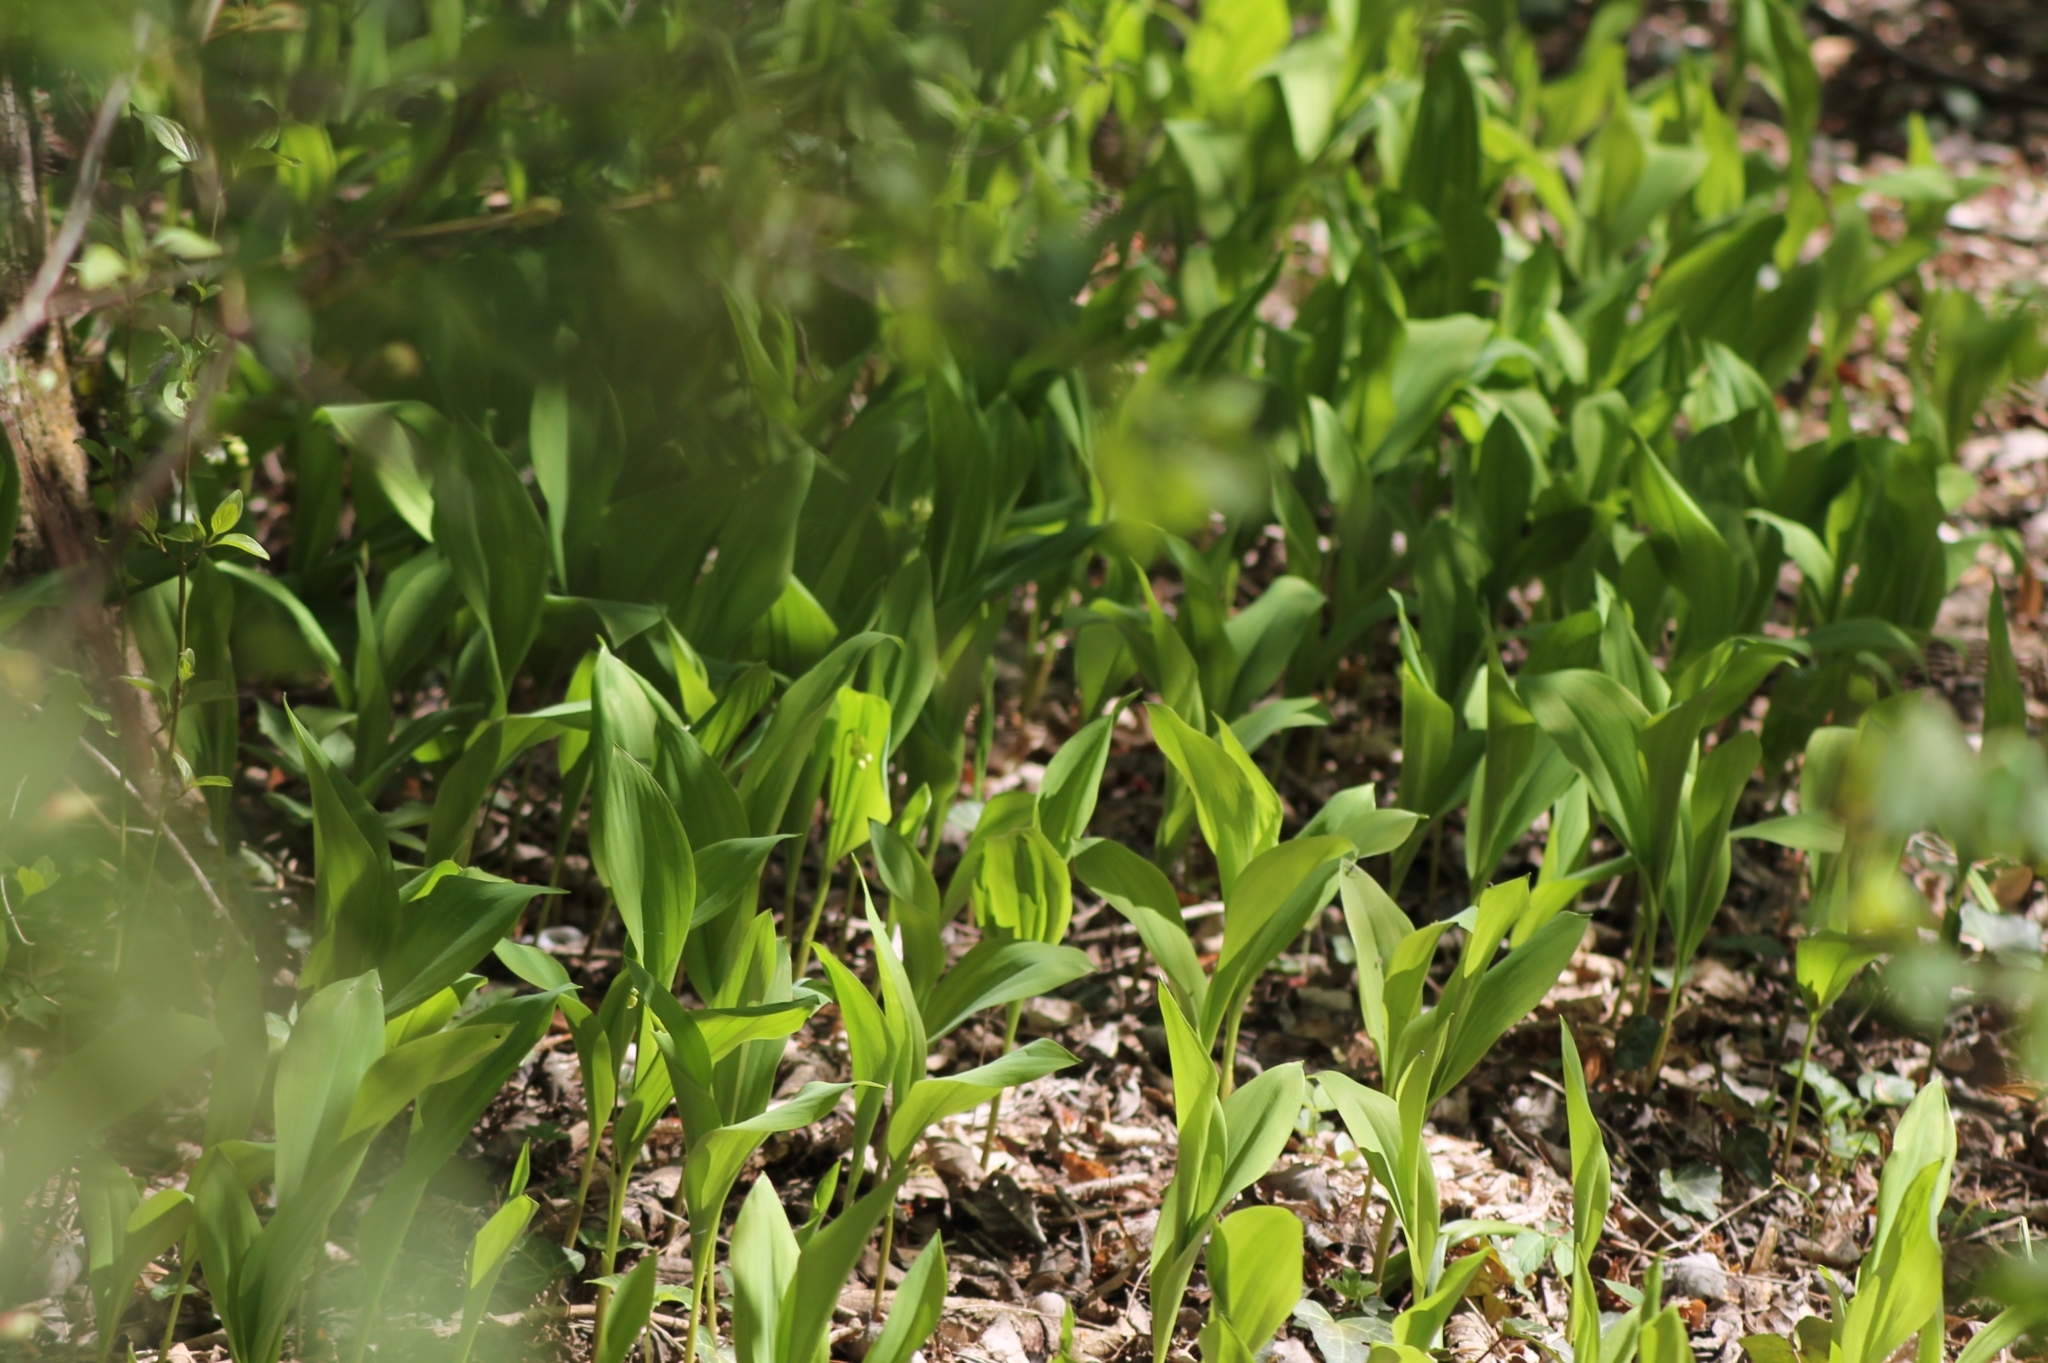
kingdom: Plantae
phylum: Tracheophyta
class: Liliopsida
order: Asparagales
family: Asparagaceae
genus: Convallaria
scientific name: Convallaria majalis
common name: Lily-of-the-valley
